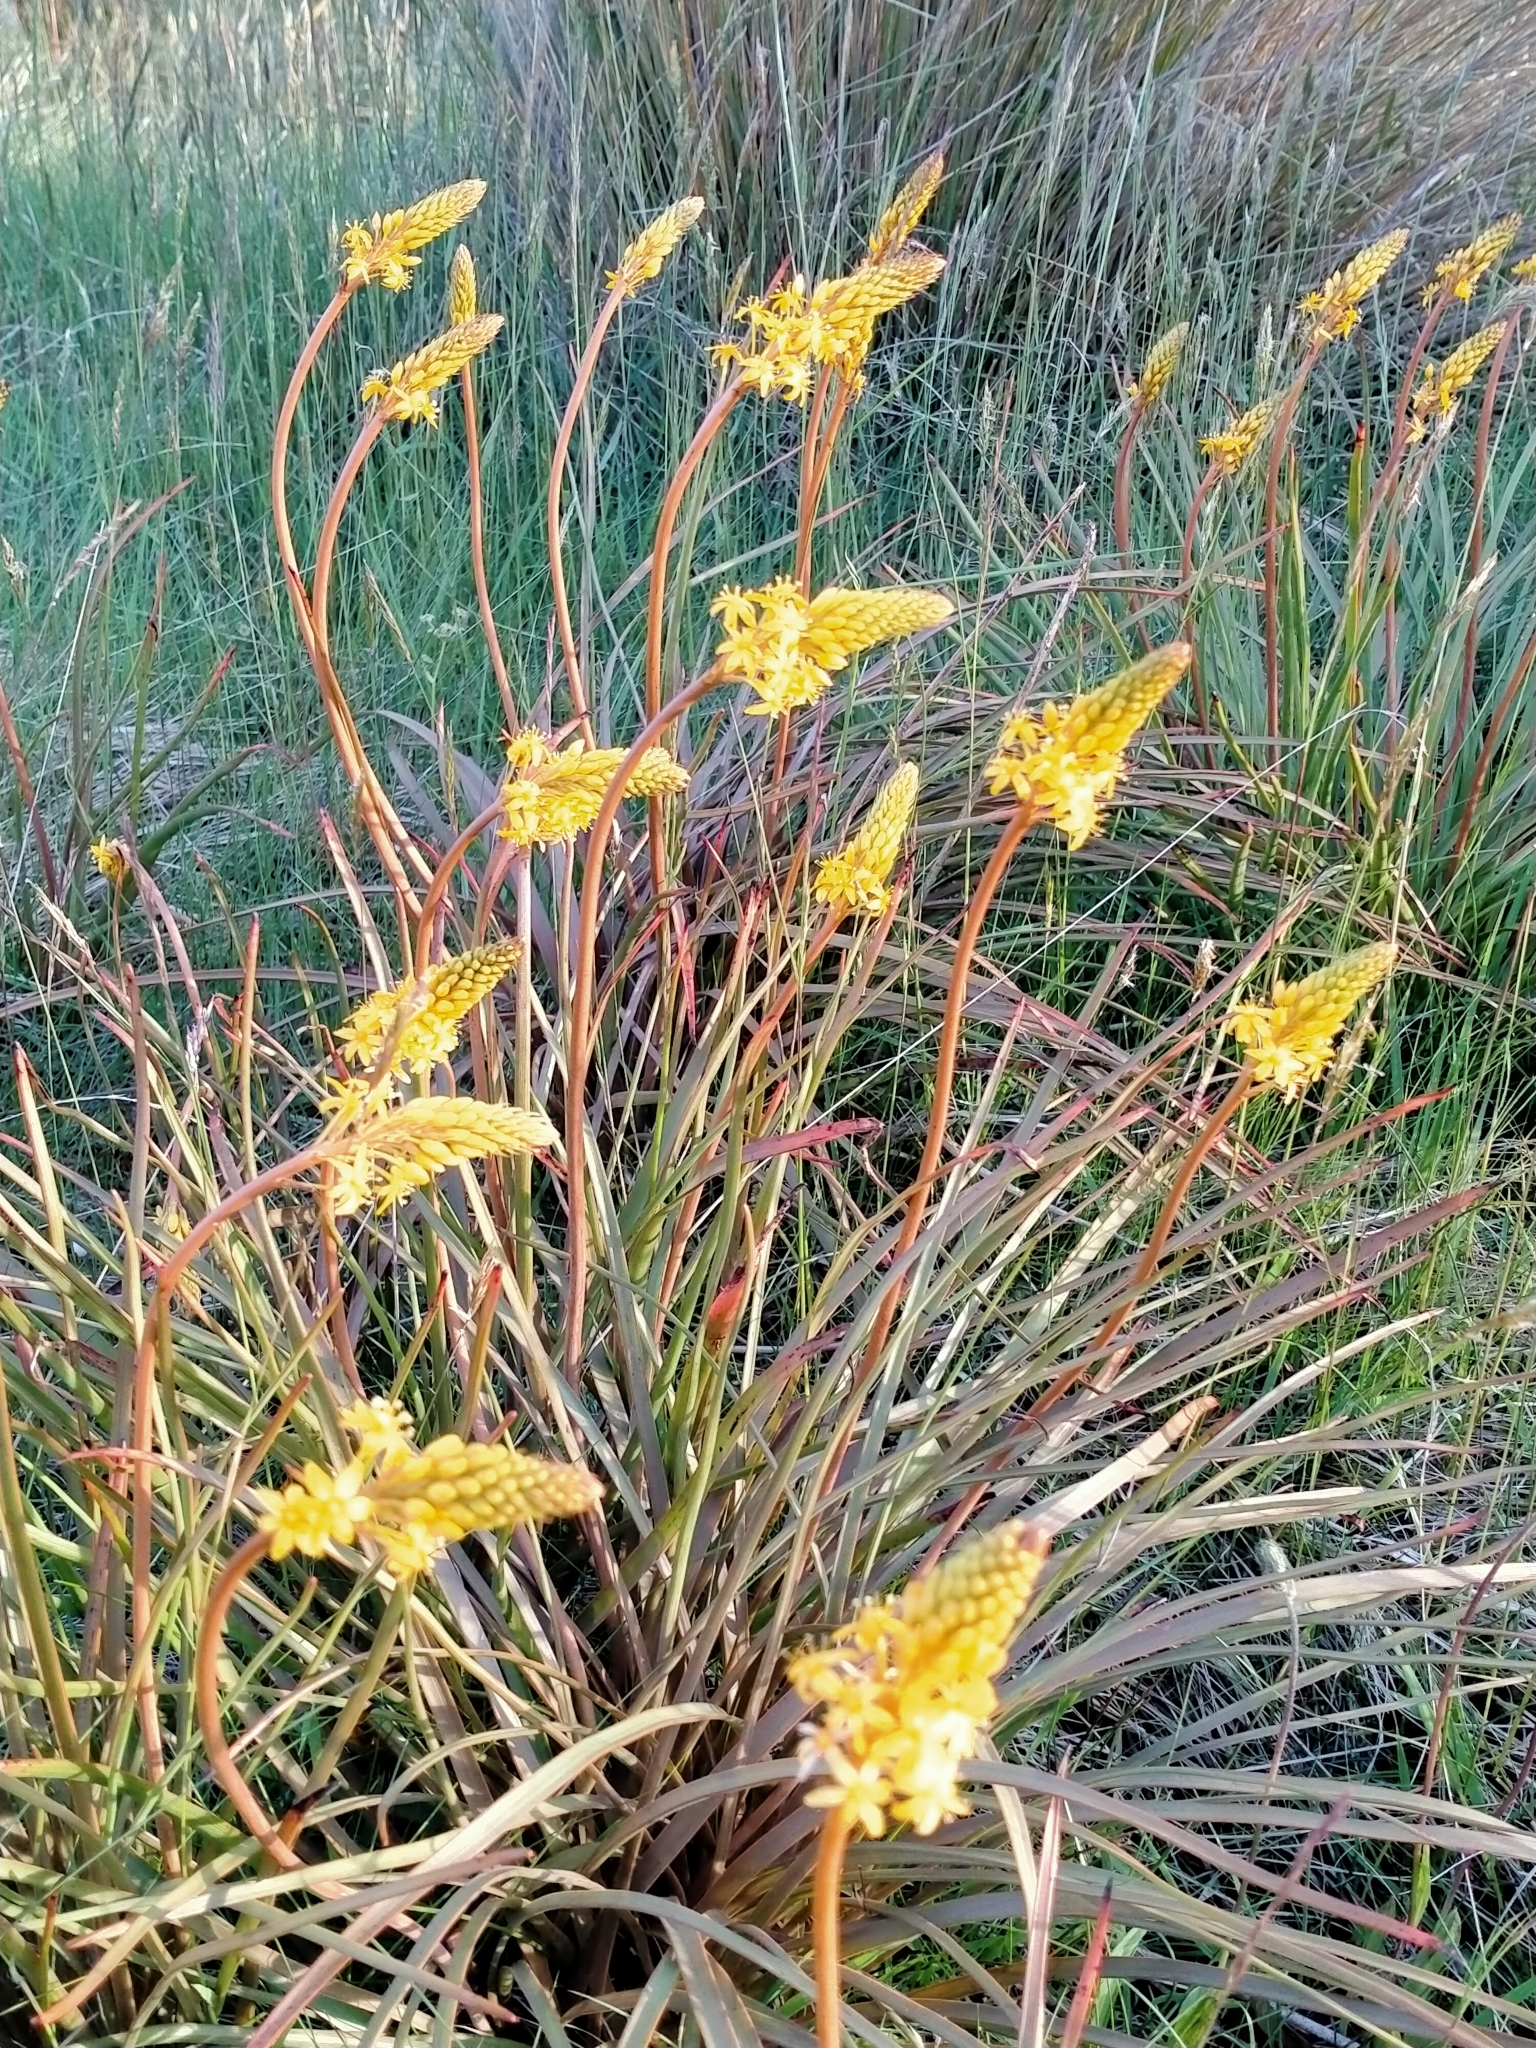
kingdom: Plantae
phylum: Tracheophyta
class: Liliopsida
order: Asparagales
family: Asphodelaceae
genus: Bulbinella
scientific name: Bulbinella angustifolia
